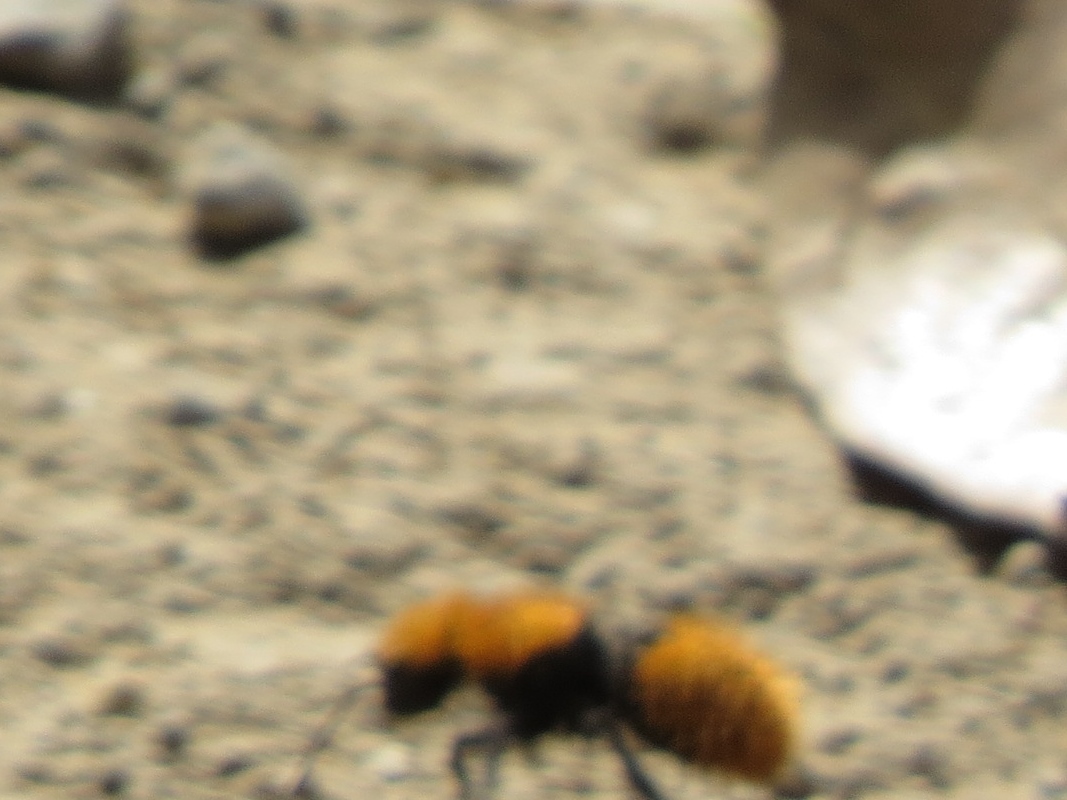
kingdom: Animalia
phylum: Arthropoda
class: Insecta
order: Hymenoptera
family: Mutillidae
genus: Dasymutilla
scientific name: Dasymutilla
